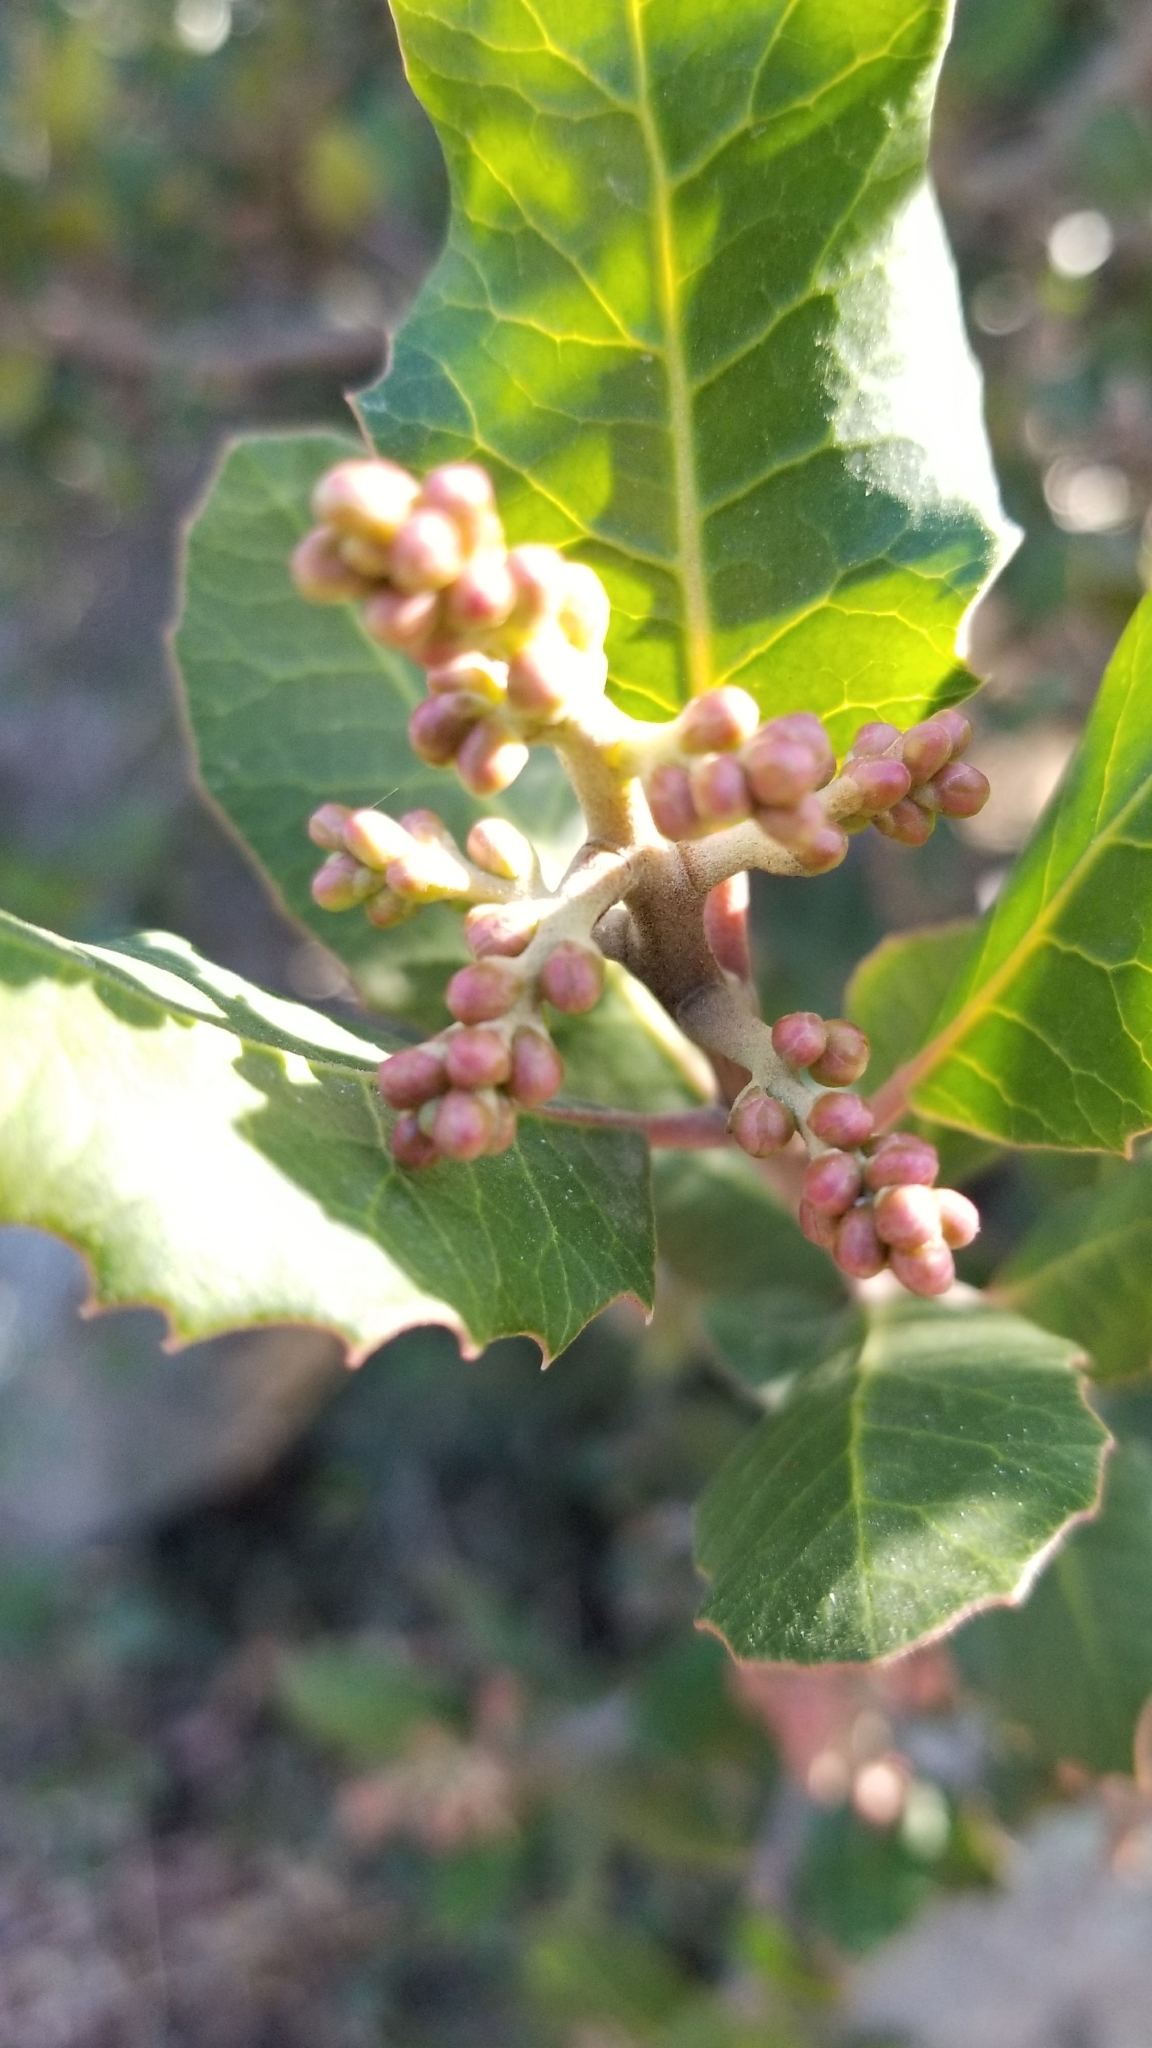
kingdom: Plantae
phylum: Tracheophyta
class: Magnoliopsida
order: Sapindales
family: Anacardiaceae
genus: Rhus
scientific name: Rhus integrifolia
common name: Lemonade sumac
